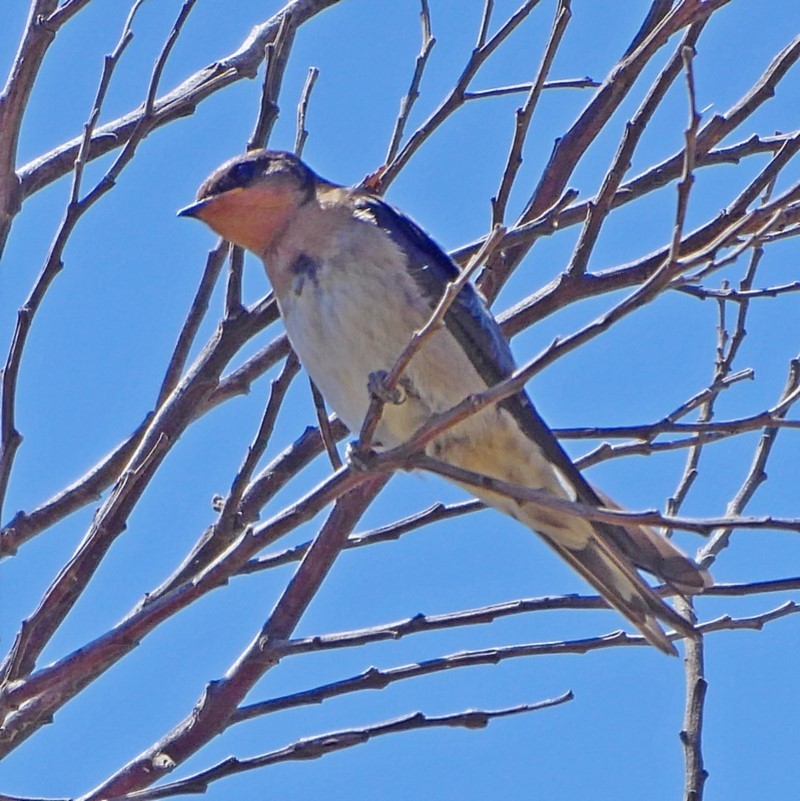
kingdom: Animalia
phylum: Chordata
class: Aves
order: Passeriformes
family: Hirundinidae
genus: Hirundo
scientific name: Hirundo neoxena
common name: Welcome swallow
